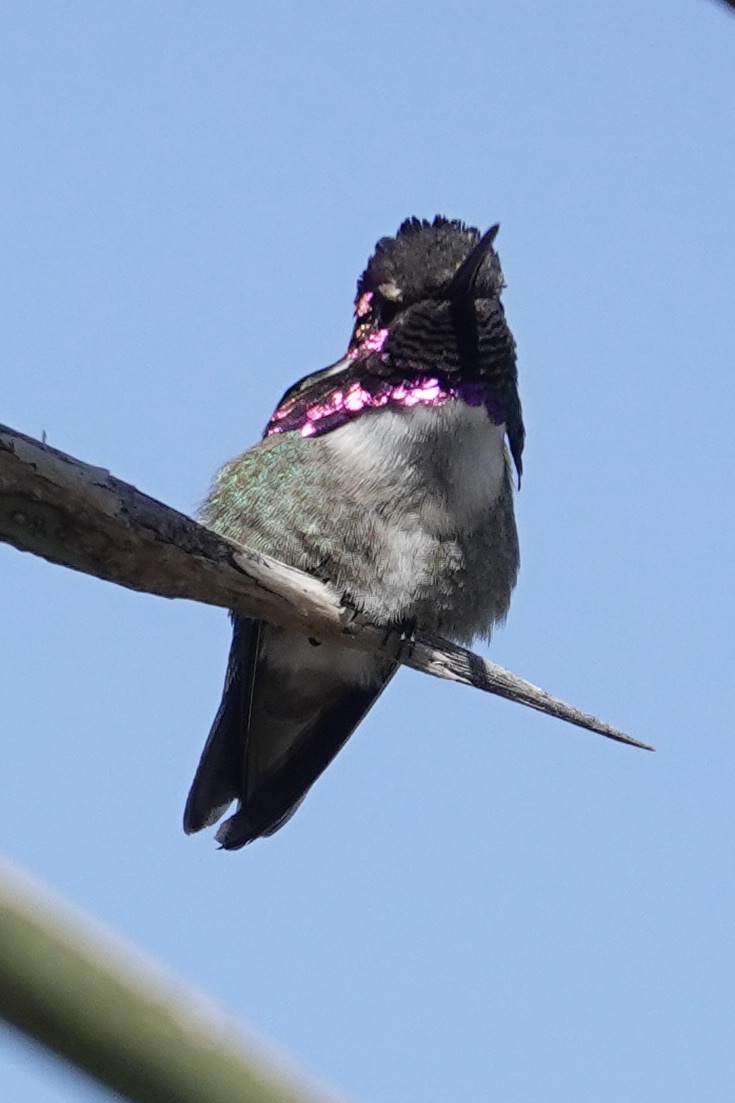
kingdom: Animalia
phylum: Chordata
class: Aves
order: Apodiformes
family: Trochilidae
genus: Calypte
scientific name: Calypte costae
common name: Costa's hummingbird
